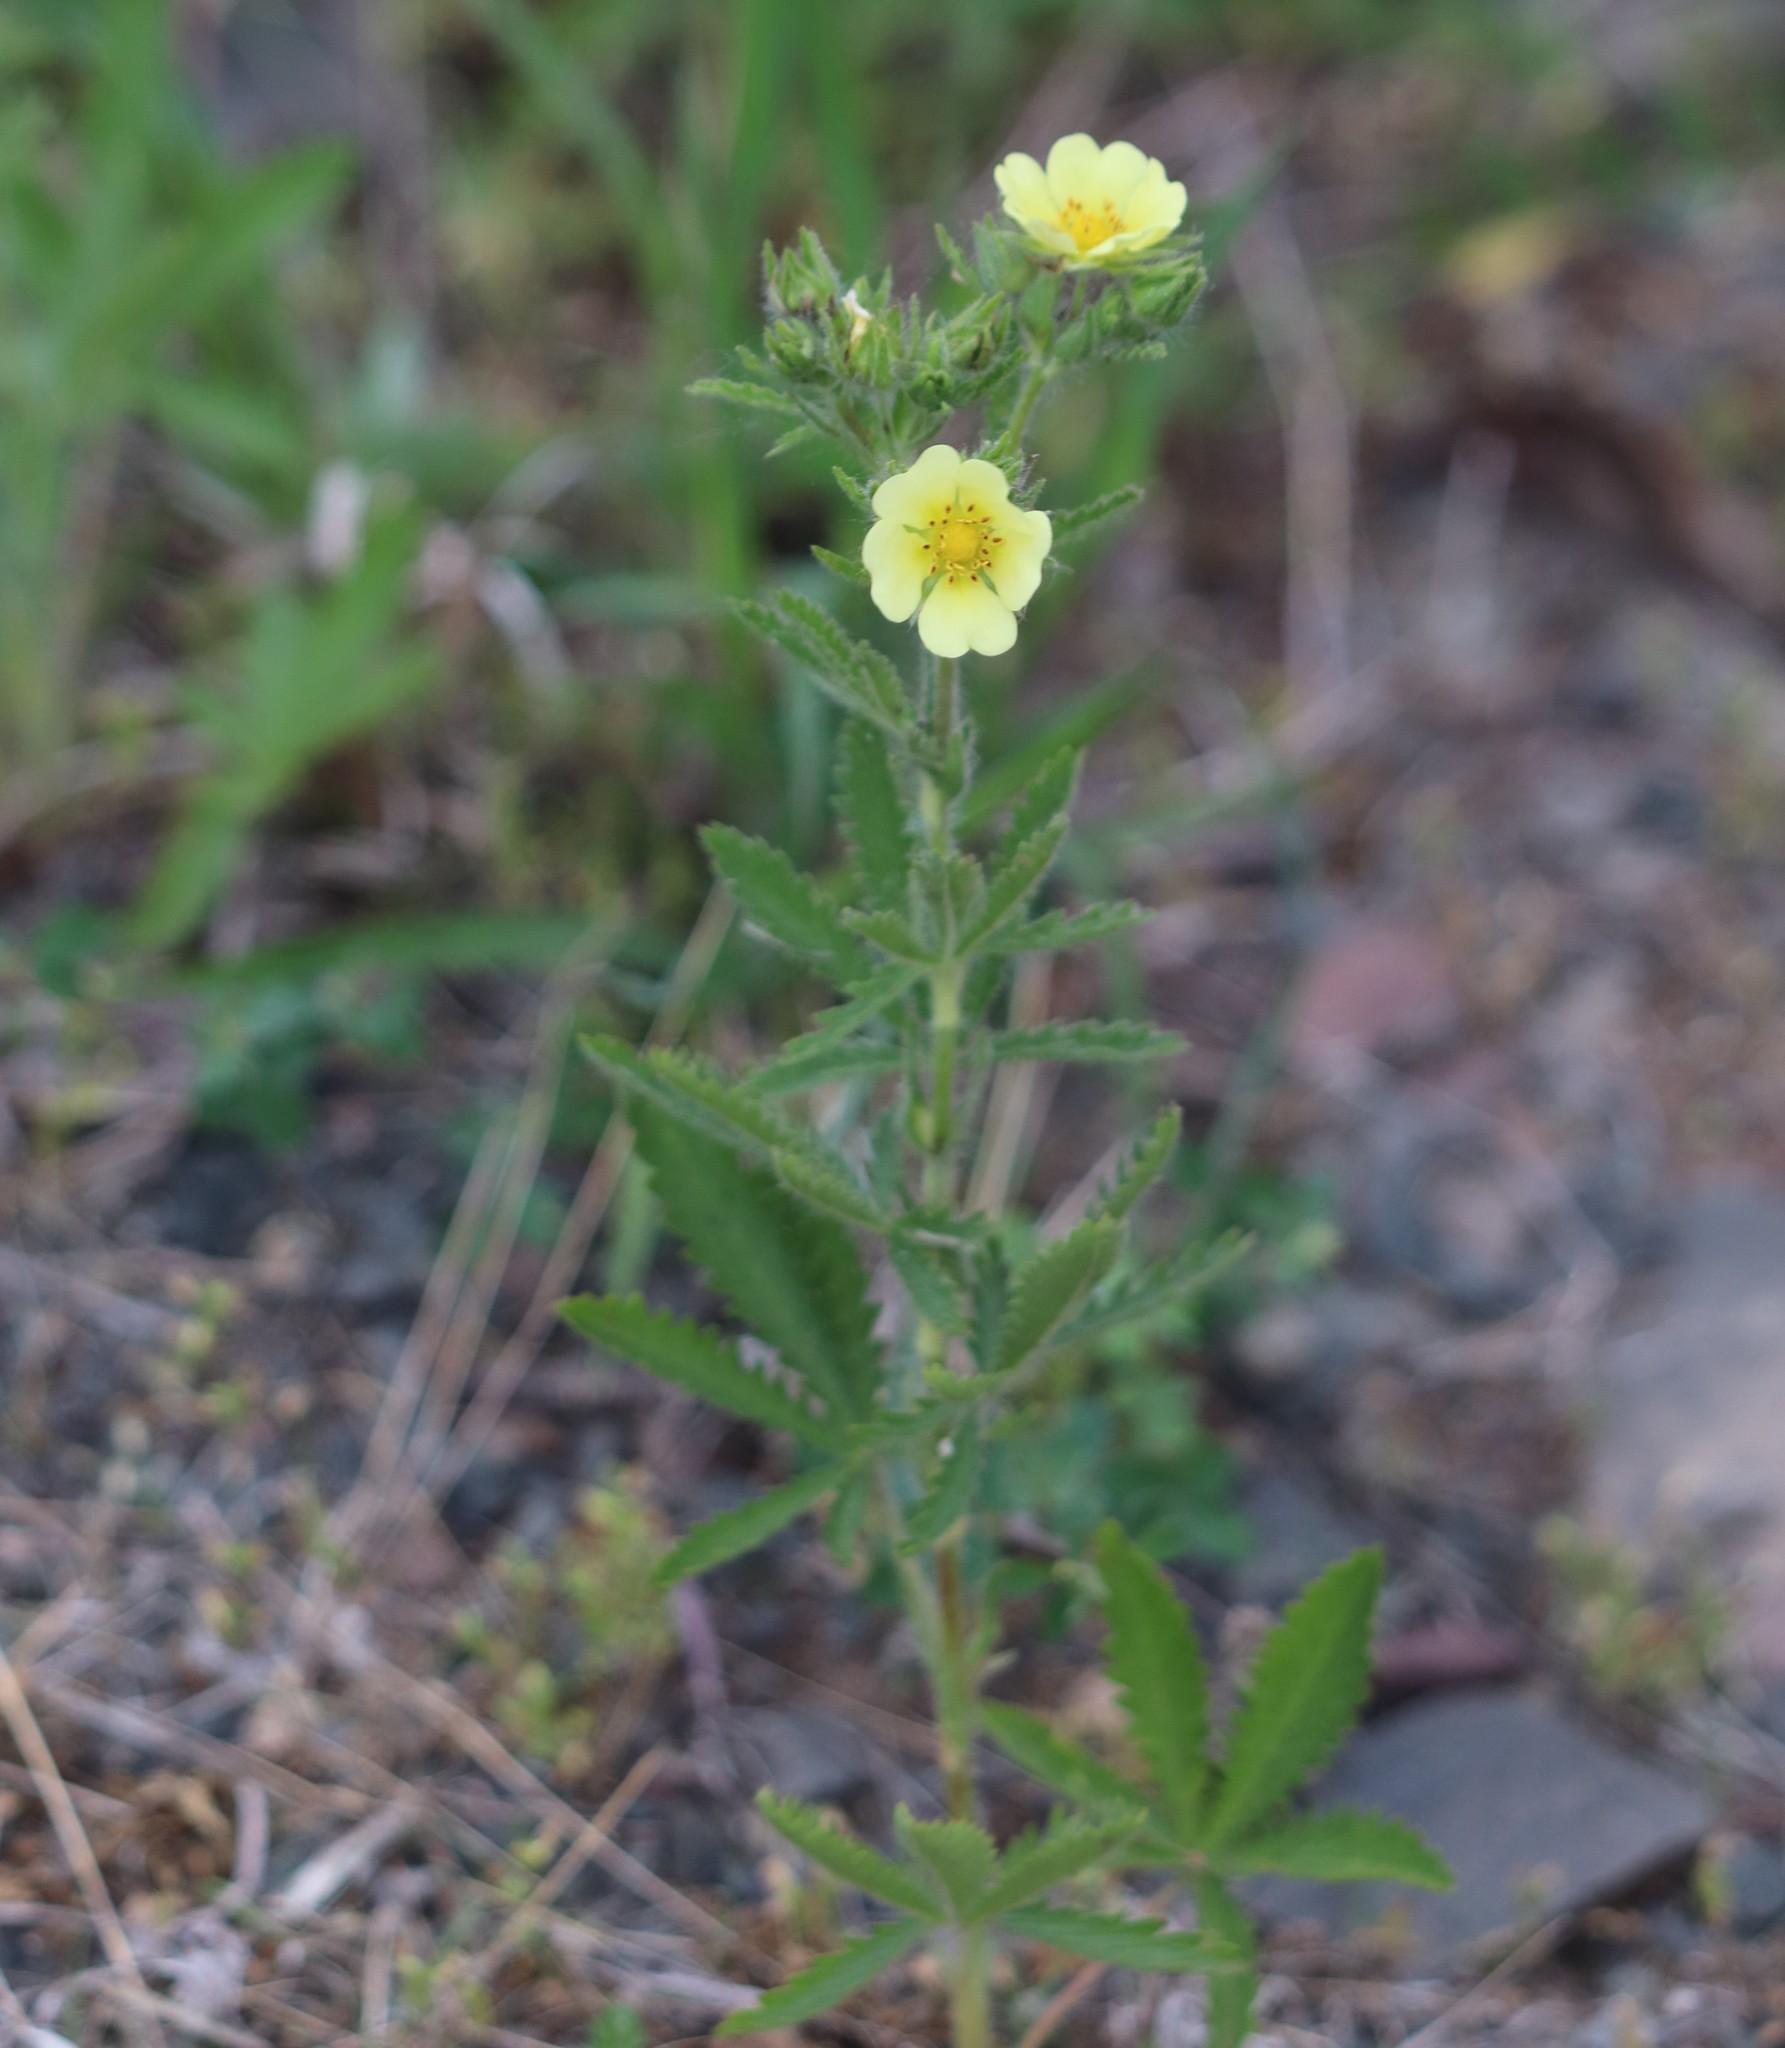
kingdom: Plantae
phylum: Tracheophyta
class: Magnoliopsida
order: Rosales
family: Rosaceae
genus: Potentilla
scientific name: Potentilla recta
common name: Sulphur cinquefoil
